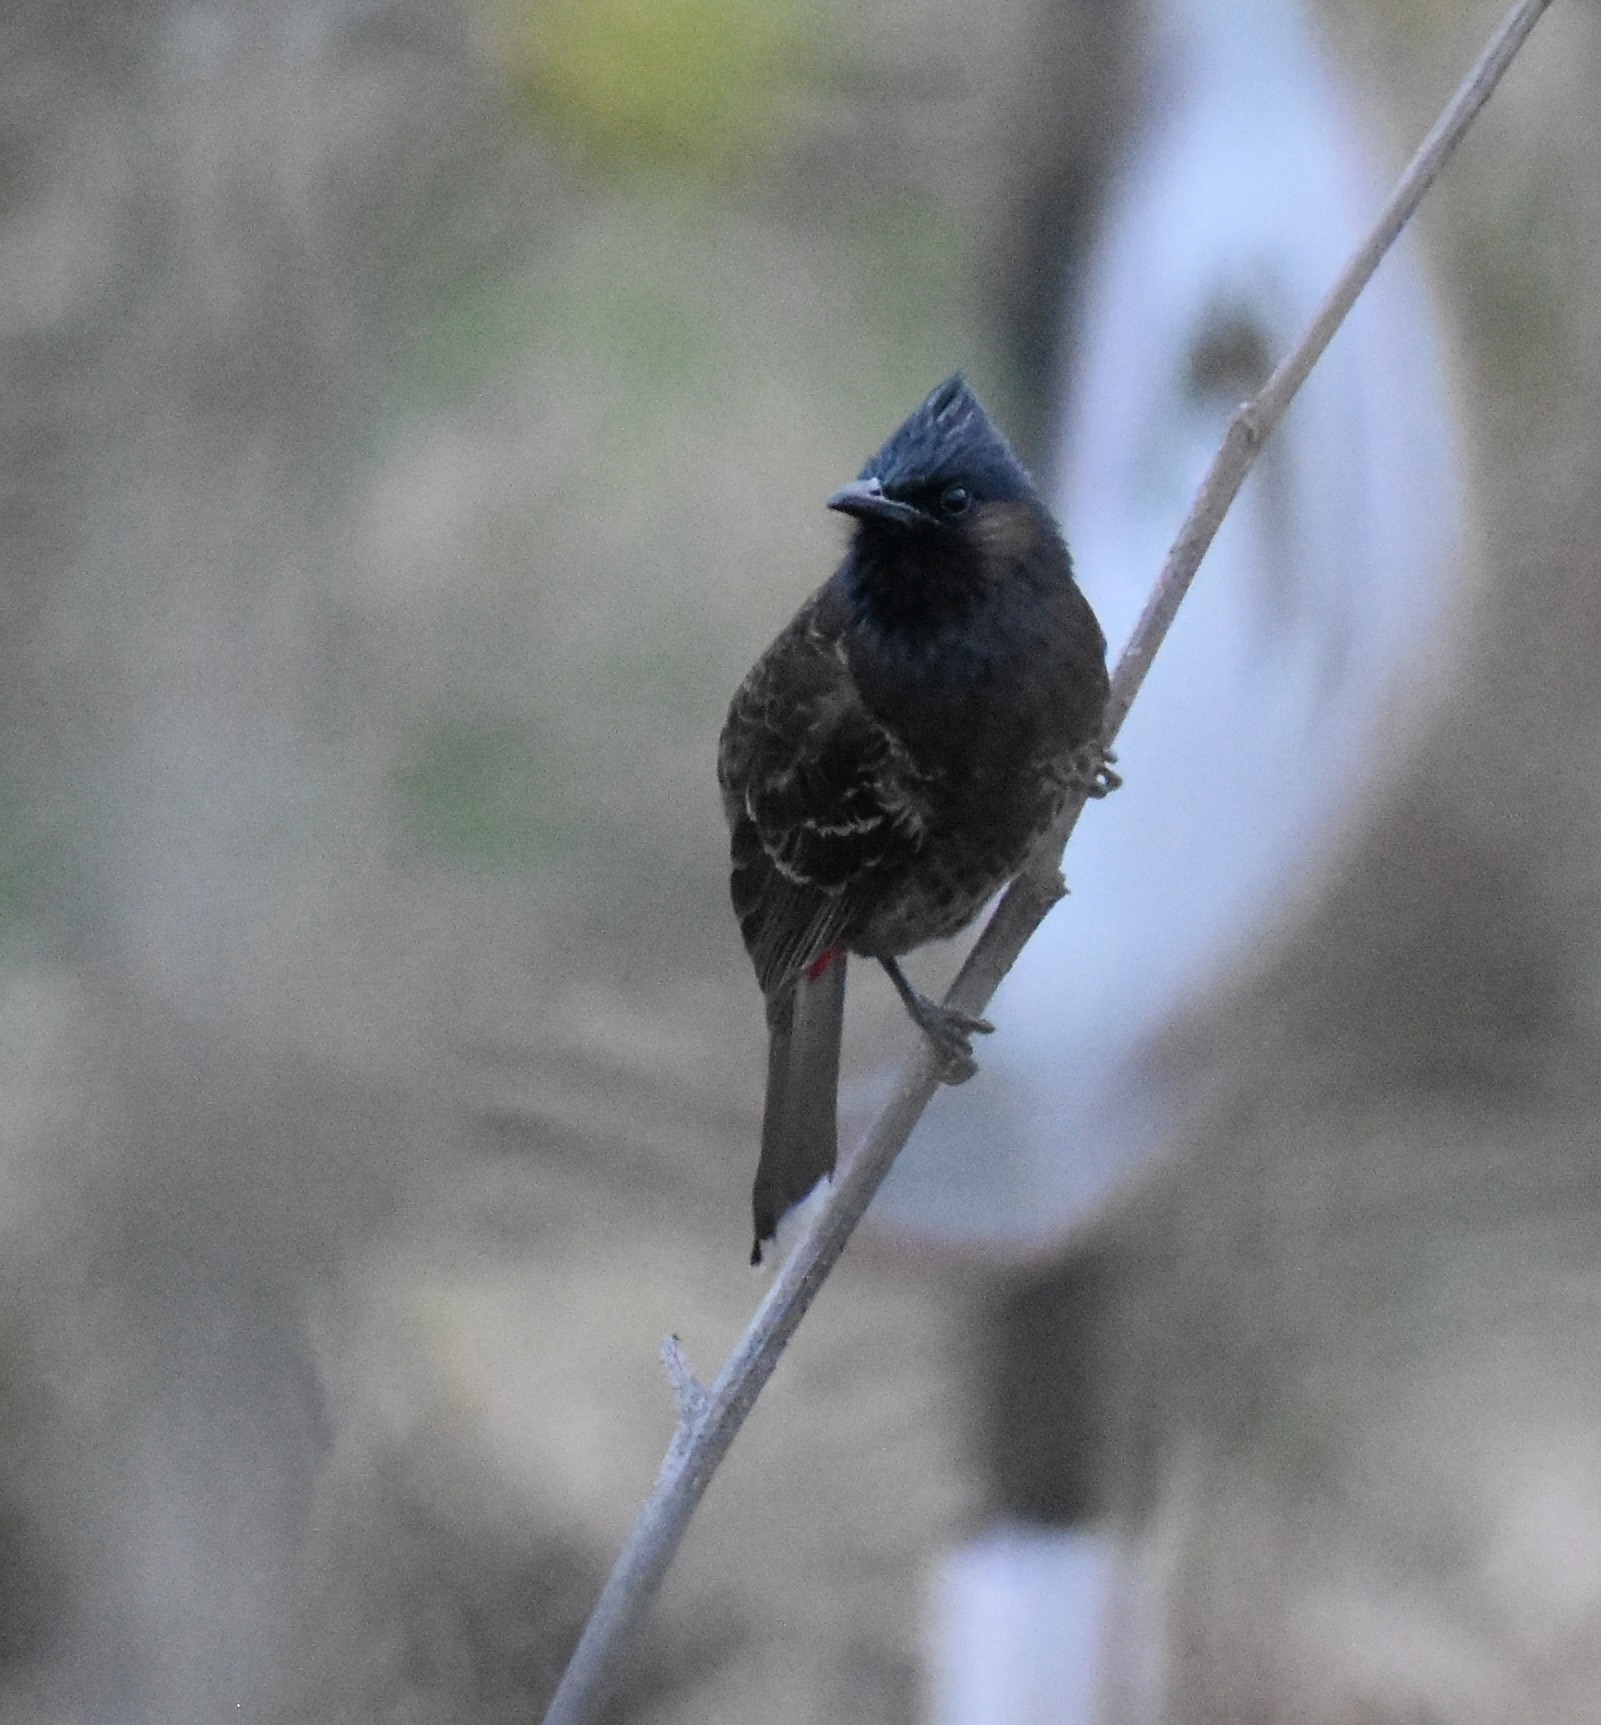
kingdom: Animalia
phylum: Chordata
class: Aves
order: Passeriformes
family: Pycnonotidae
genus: Pycnonotus
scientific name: Pycnonotus cafer
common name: Red-vented bulbul
